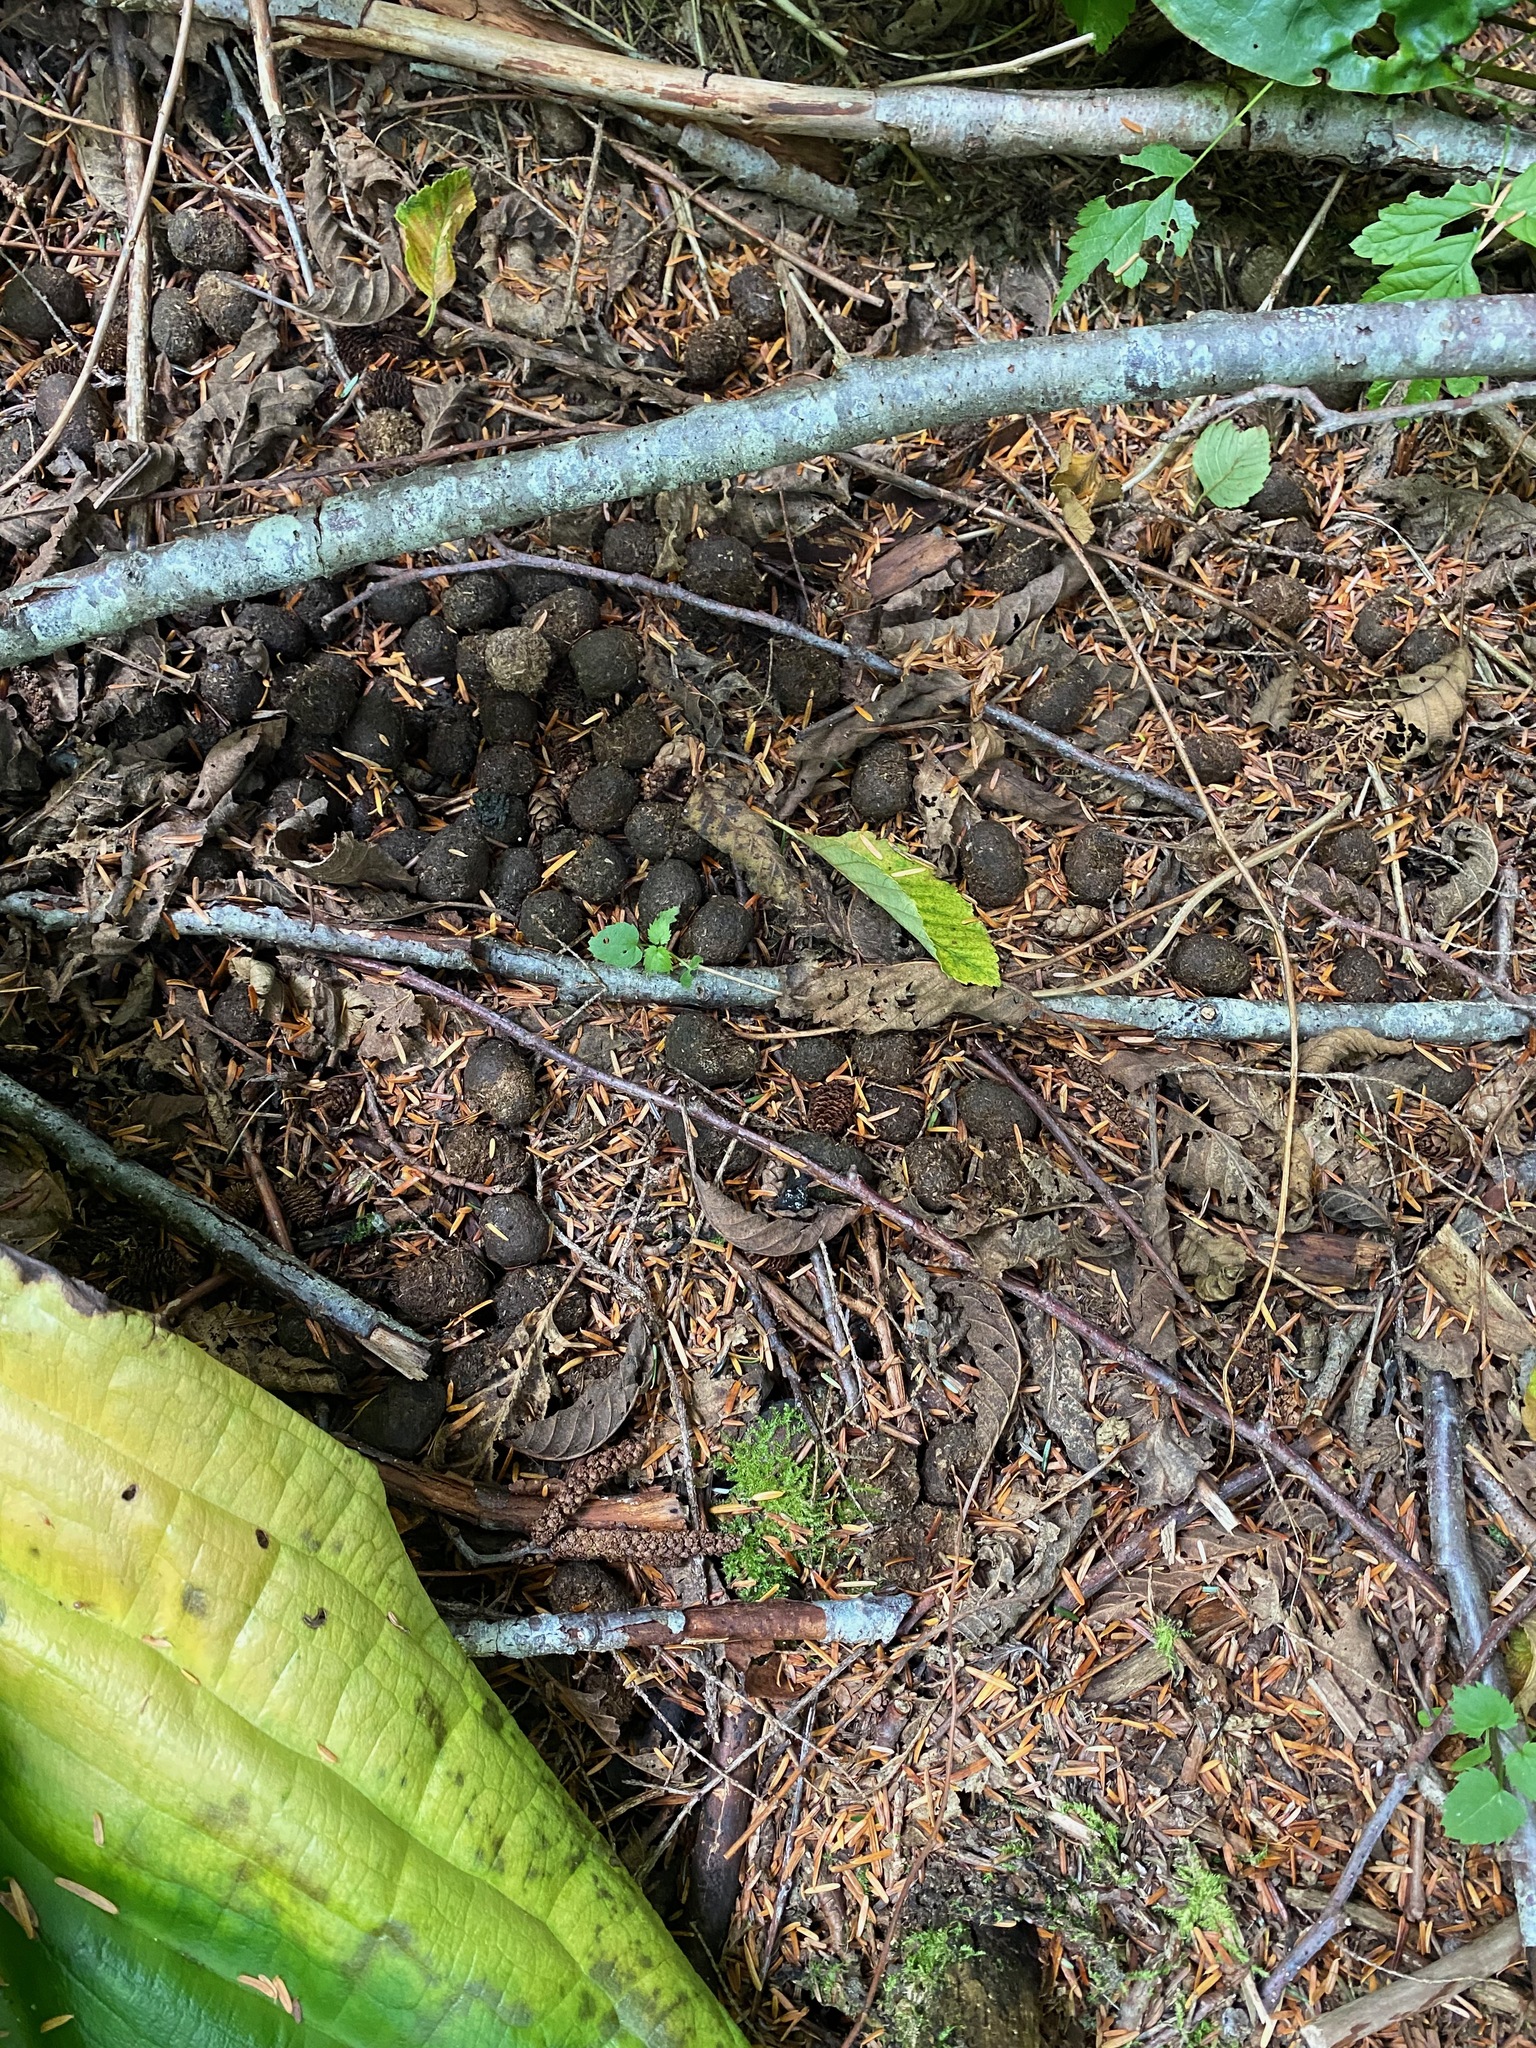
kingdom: Animalia
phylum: Chordata
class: Mammalia
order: Artiodactyla
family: Cervidae
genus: Alces
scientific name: Alces alces
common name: Moose
